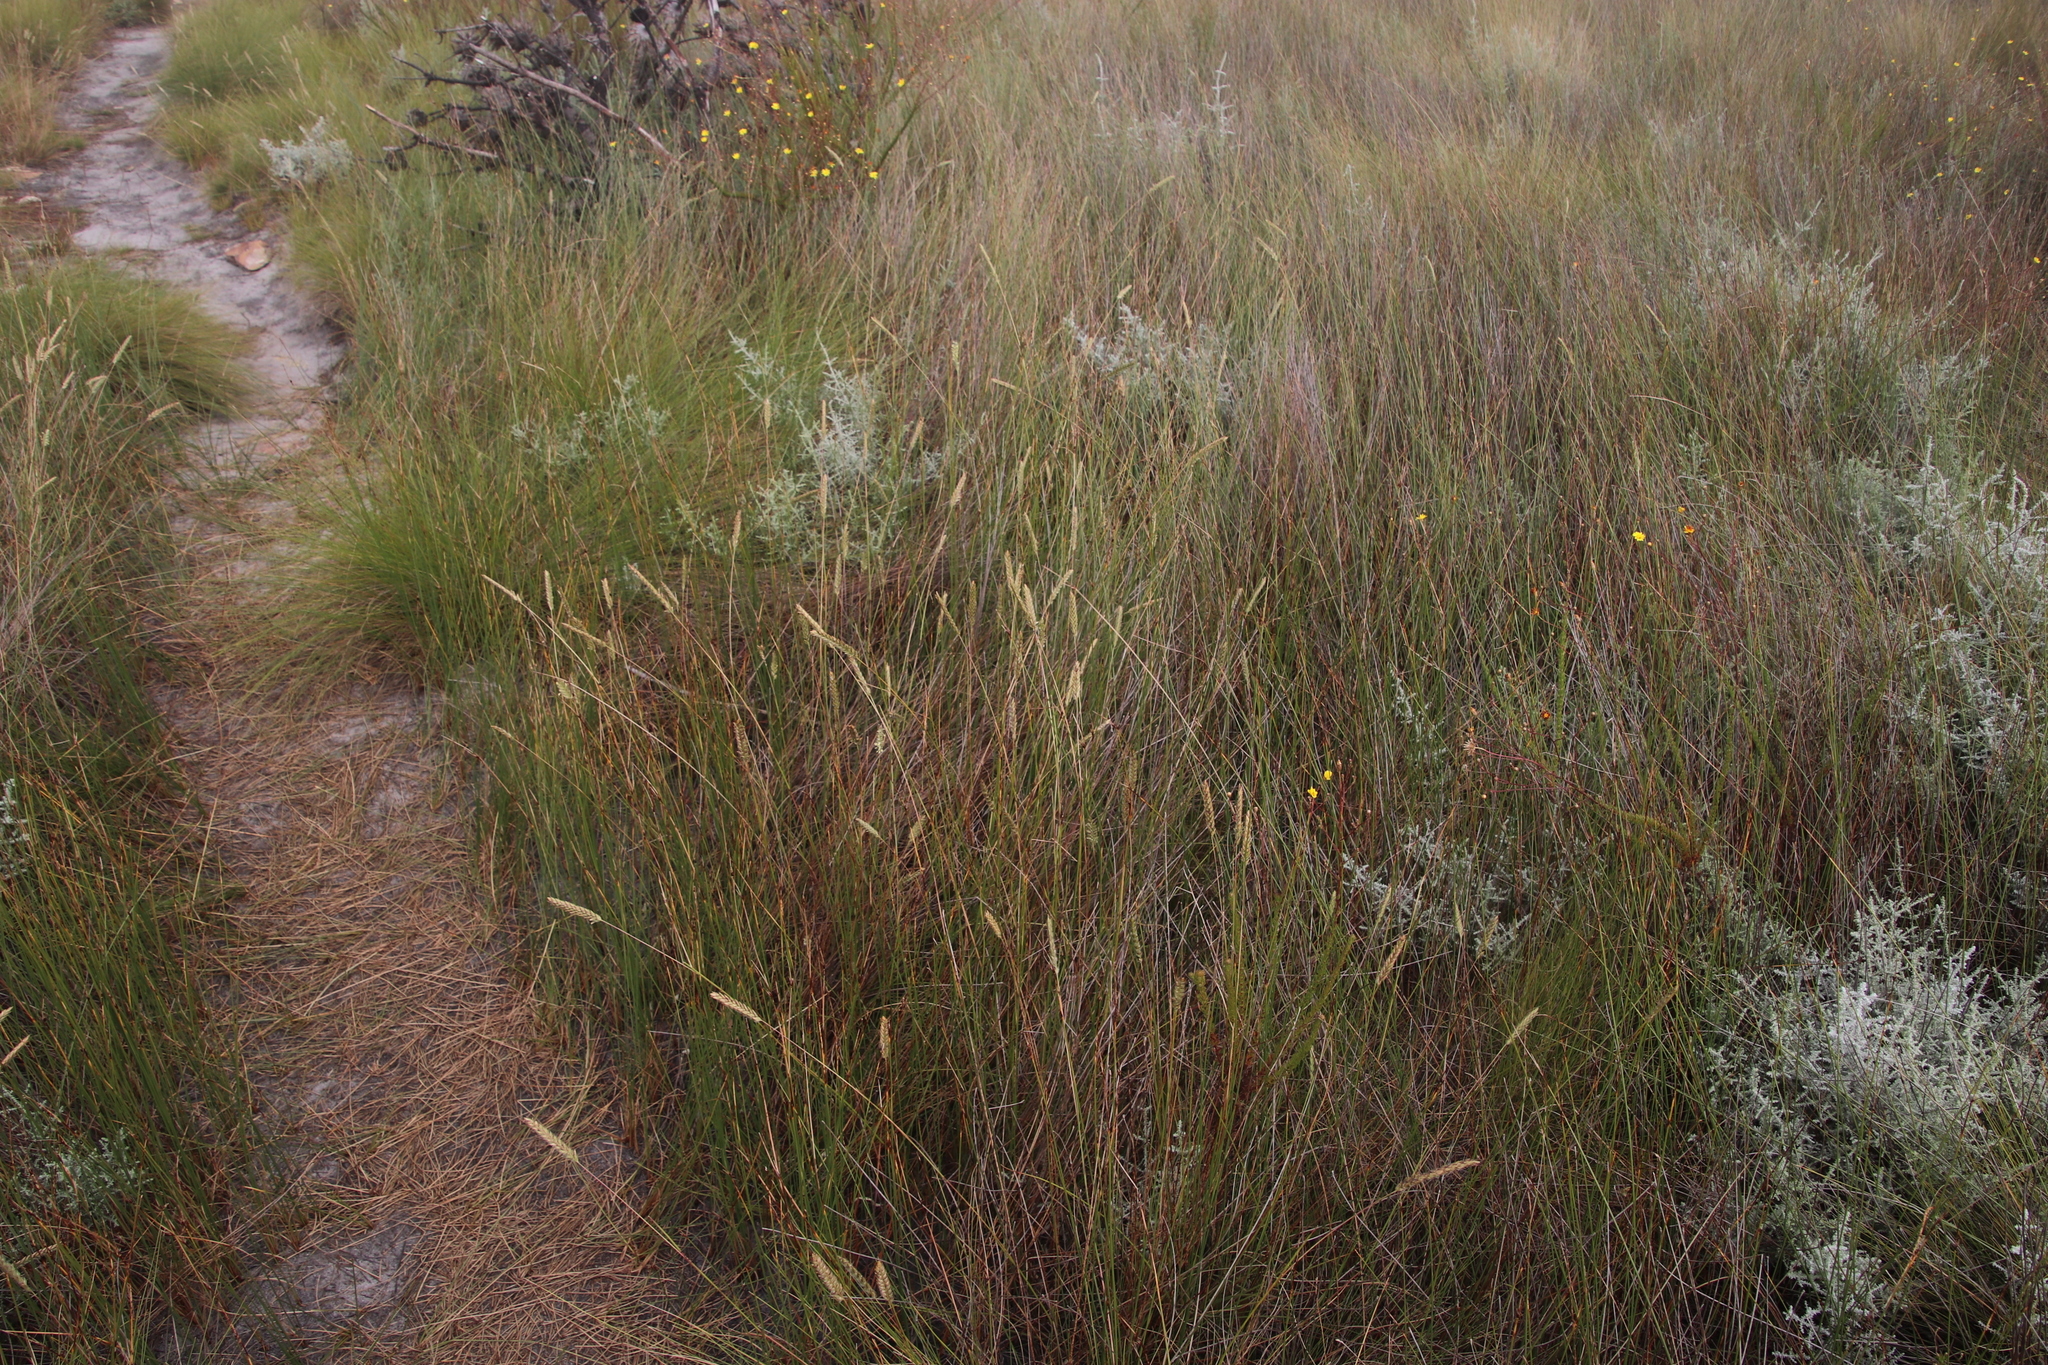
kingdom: Plantae
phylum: Tracheophyta
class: Liliopsida
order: Poales
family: Poaceae
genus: Tribolium
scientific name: Tribolium brachystachyum
